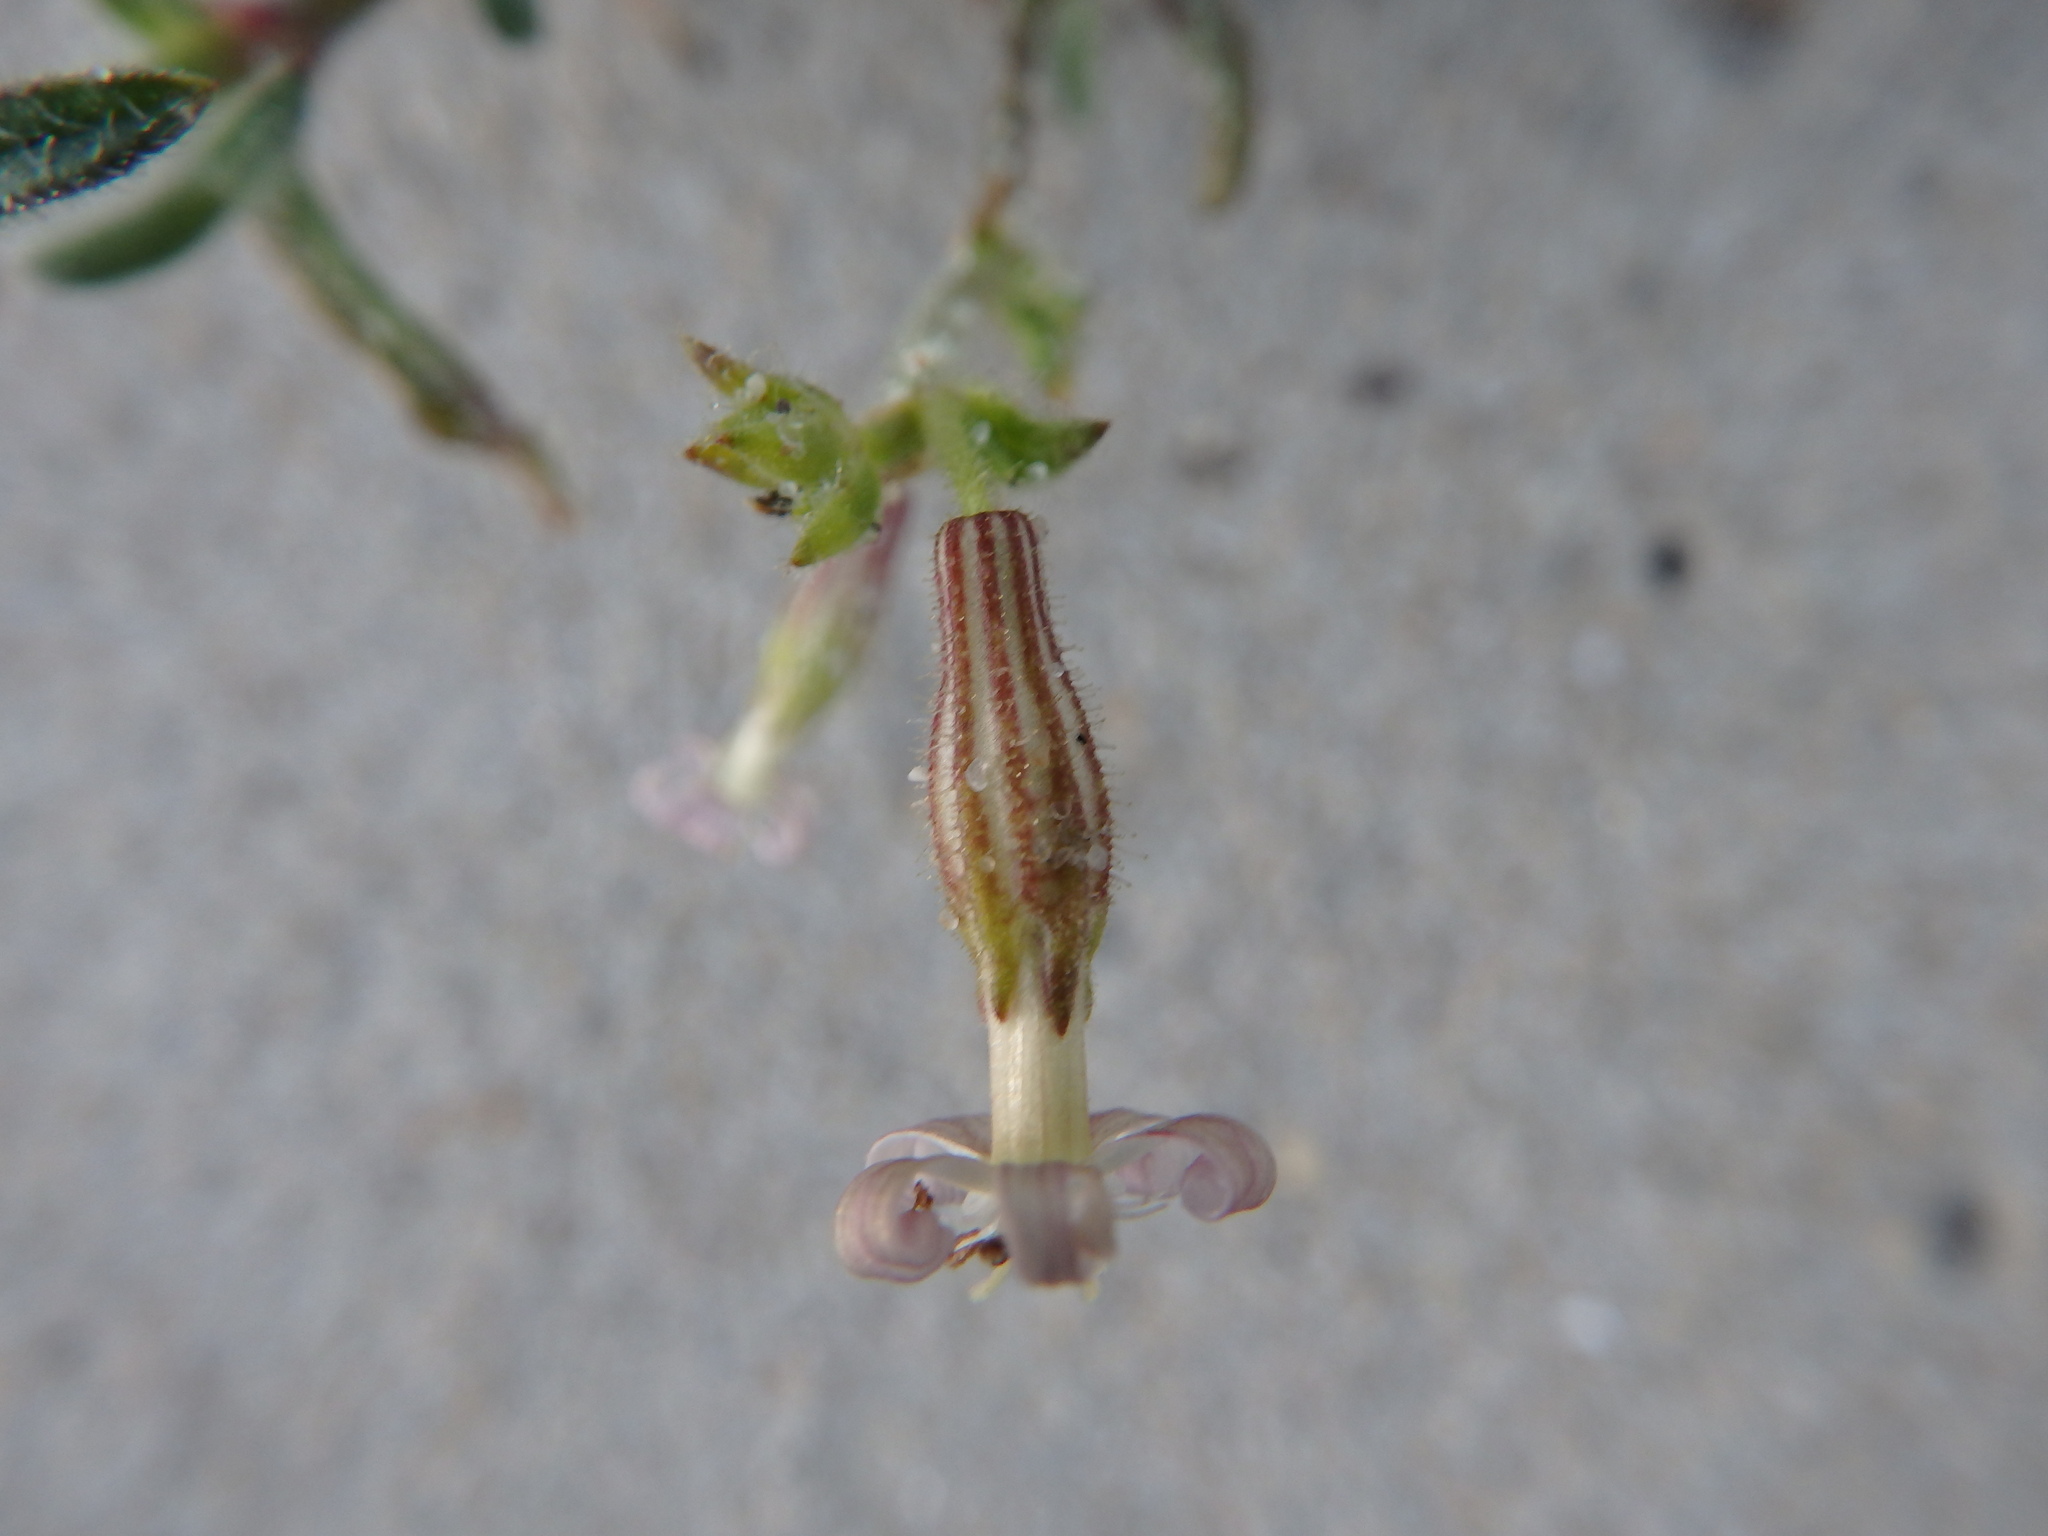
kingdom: Plantae
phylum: Tracheophyta
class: Magnoliopsida
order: Caryophyllales
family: Caryophyllaceae
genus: Silene
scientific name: Silene nicaeensis
